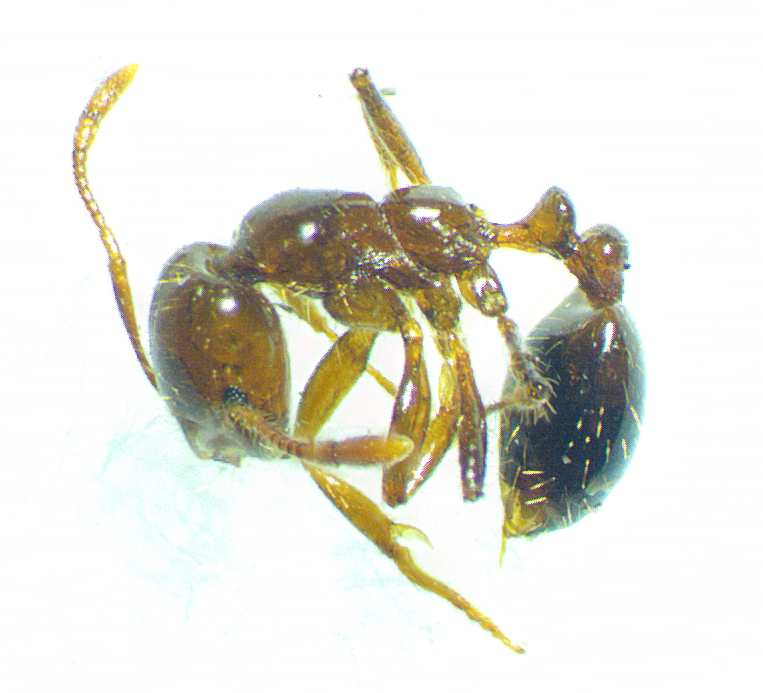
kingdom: Animalia
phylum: Arthropoda
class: Insecta
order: Hymenoptera
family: Formicidae
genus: Solenopsis
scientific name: Solenopsis invicta
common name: Red imported fire ant
